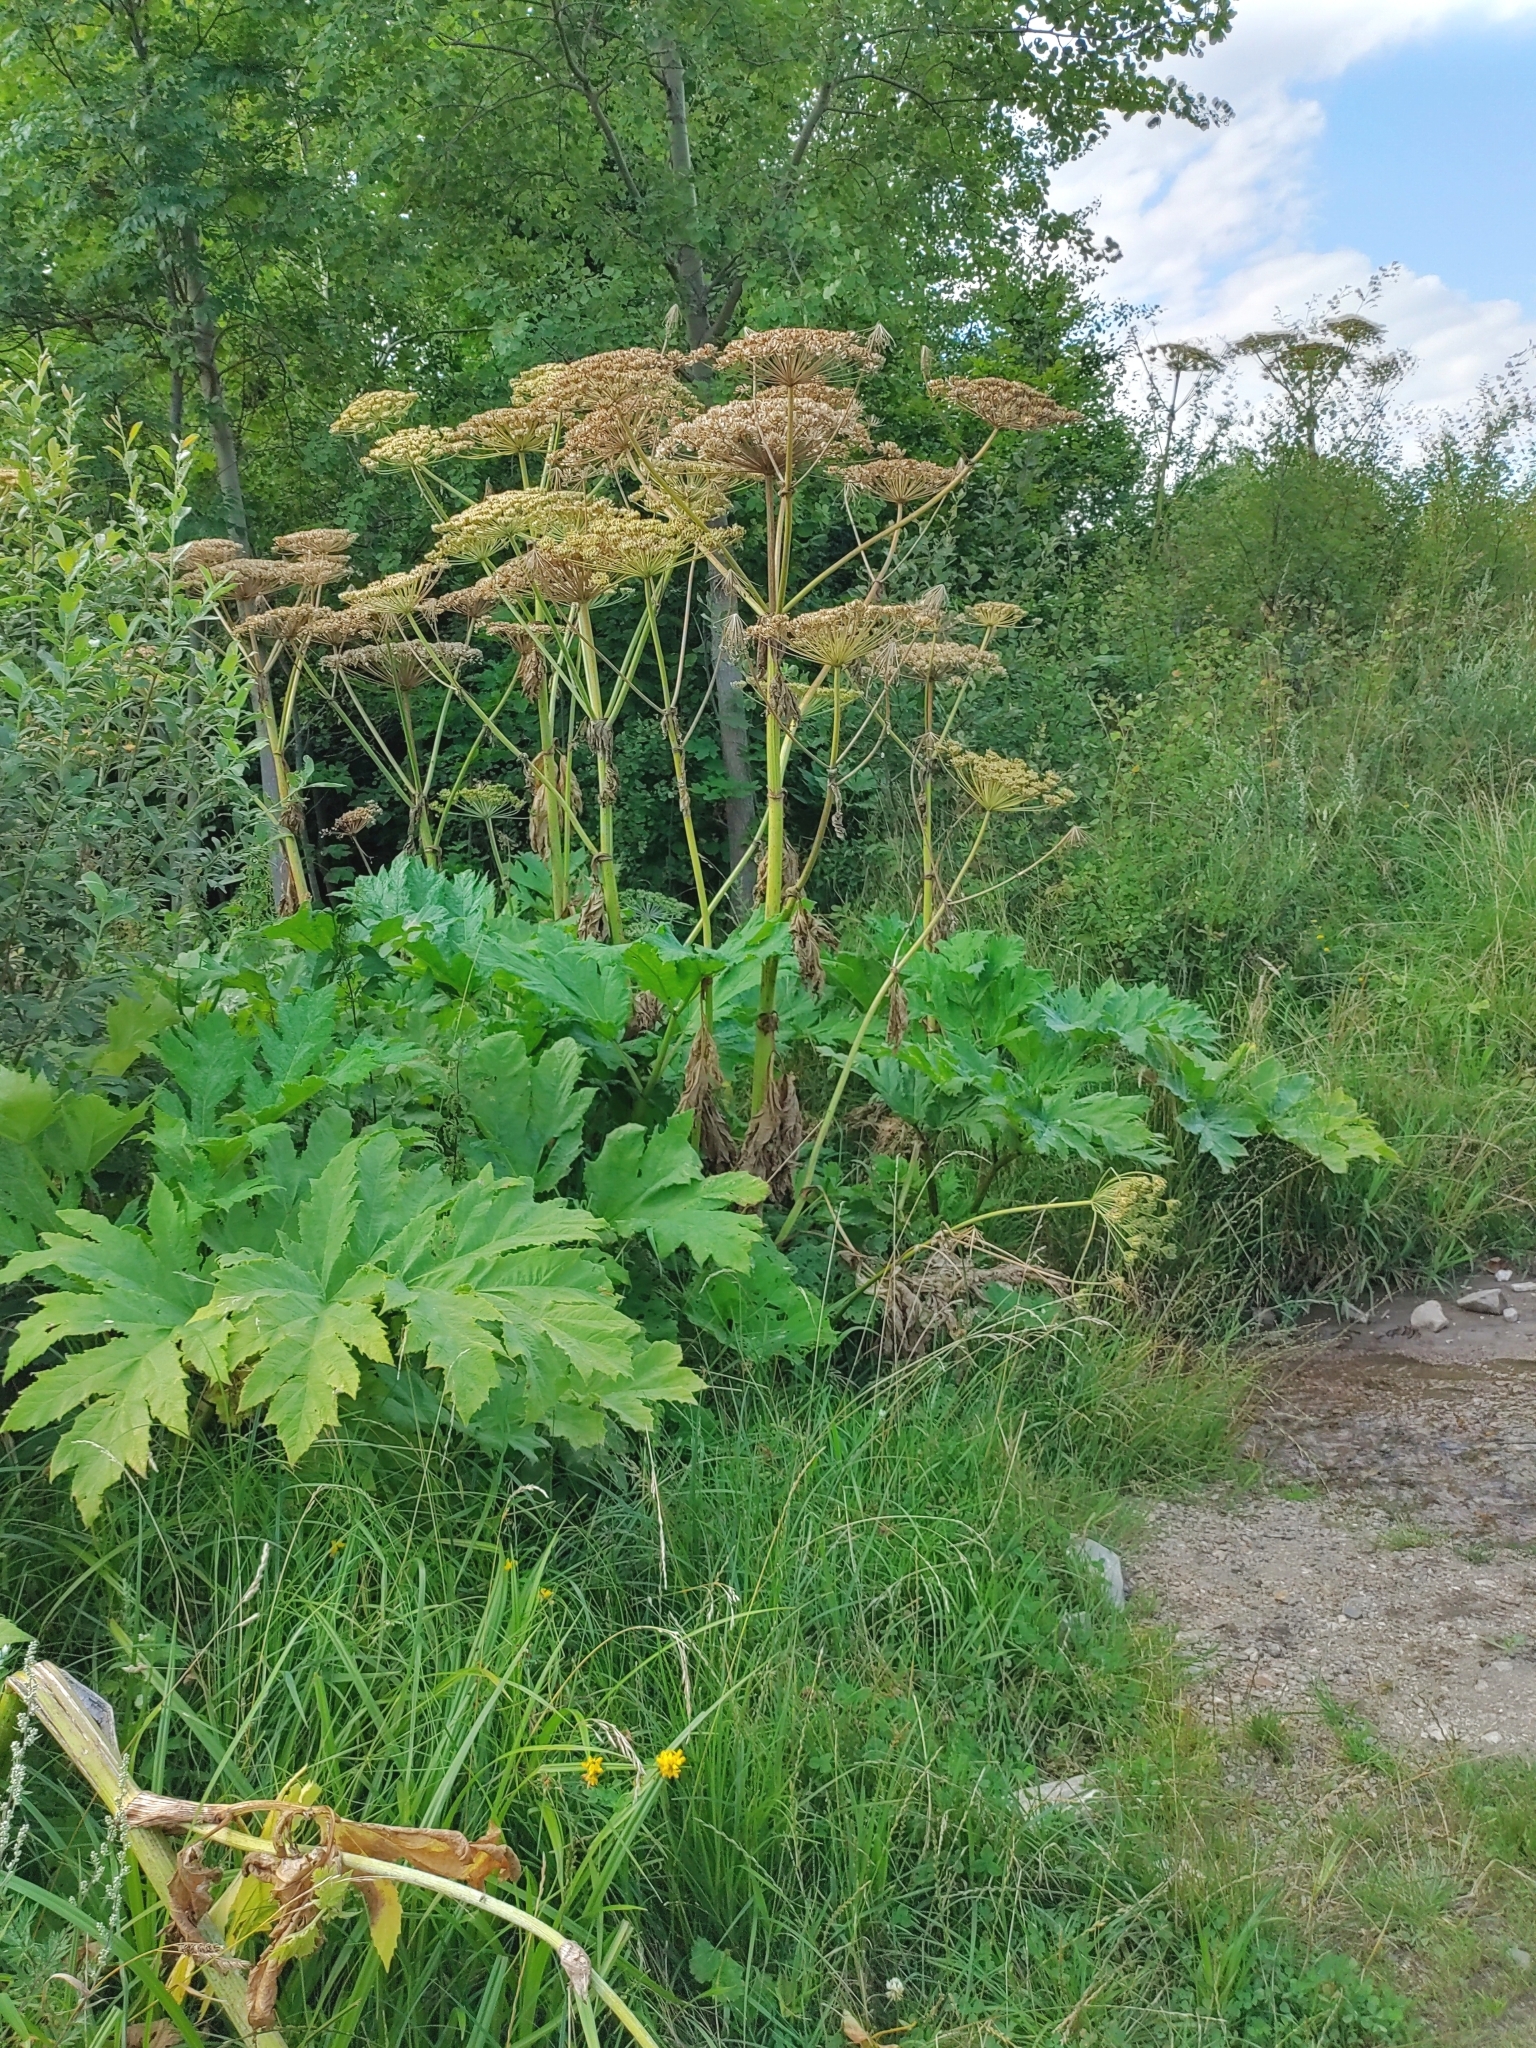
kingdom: Plantae
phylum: Tracheophyta
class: Magnoliopsida
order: Apiales
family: Apiaceae
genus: Heracleum
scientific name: Heracleum mantegazzianum
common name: Giant hogweed
